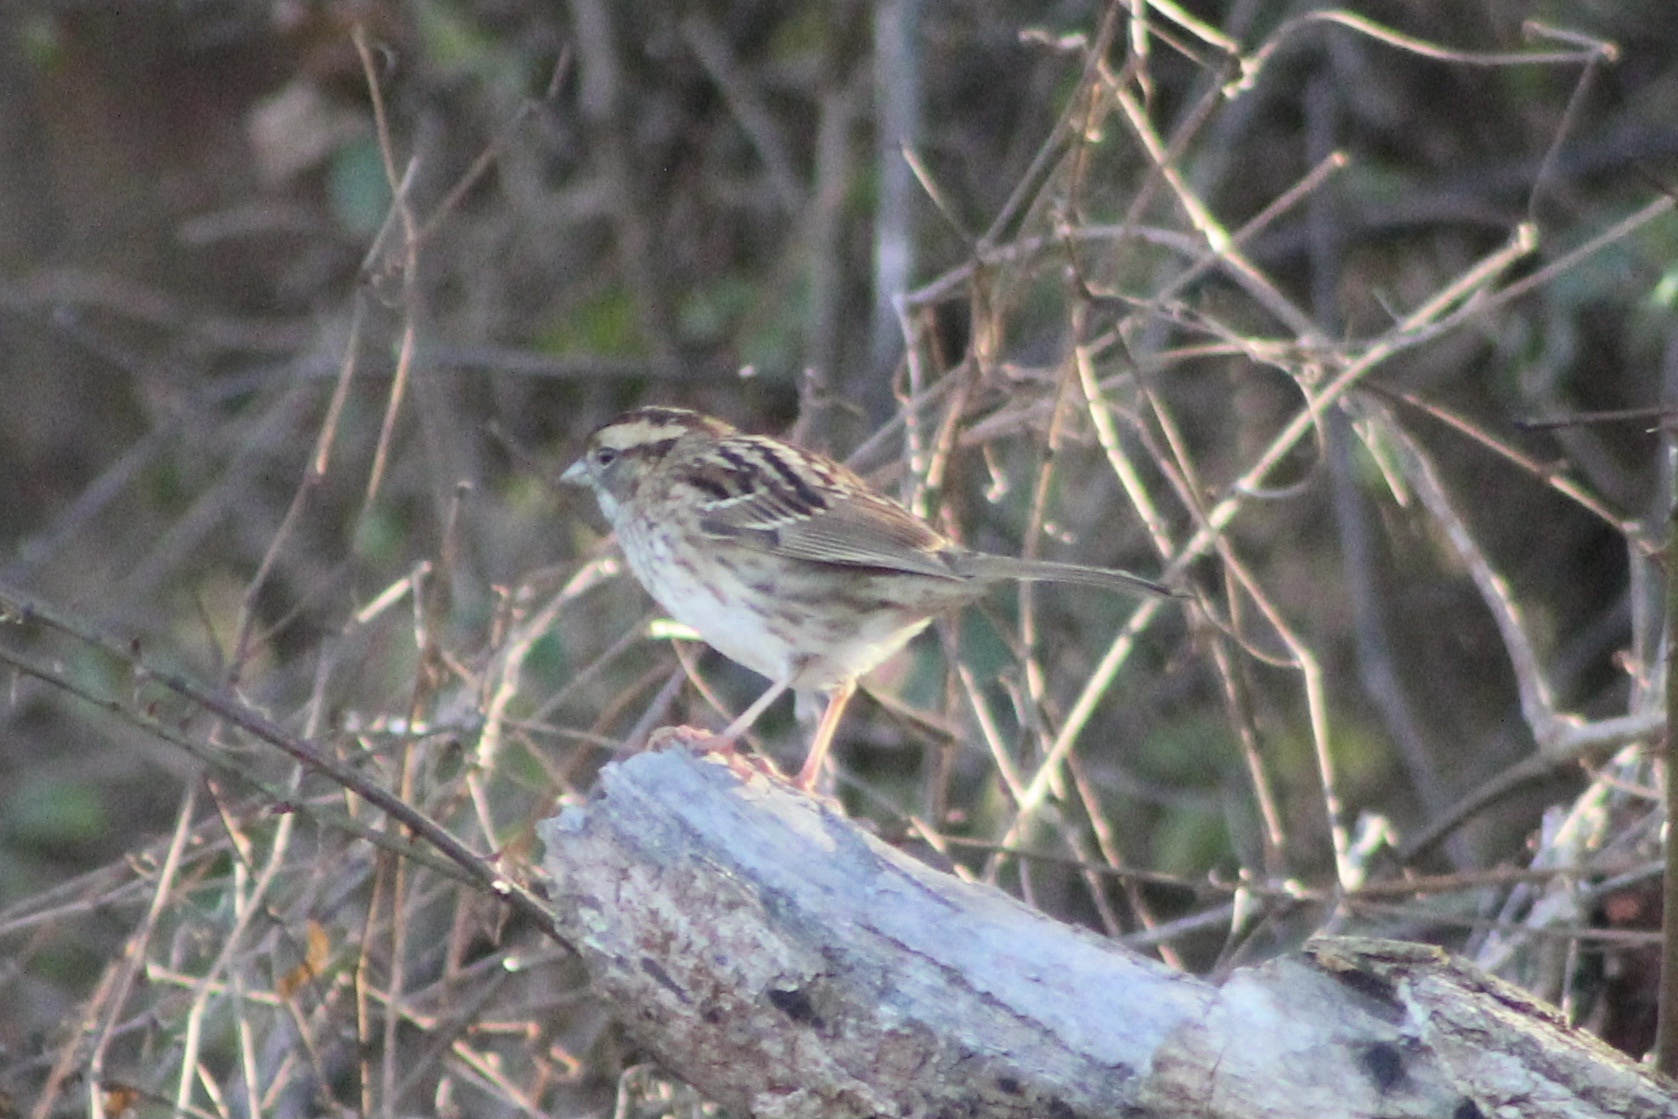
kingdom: Animalia
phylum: Chordata
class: Aves
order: Passeriformes
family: Passerellidae
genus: Zonotrichia
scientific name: Zonotrichia albicollis
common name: White-throated sparrow
